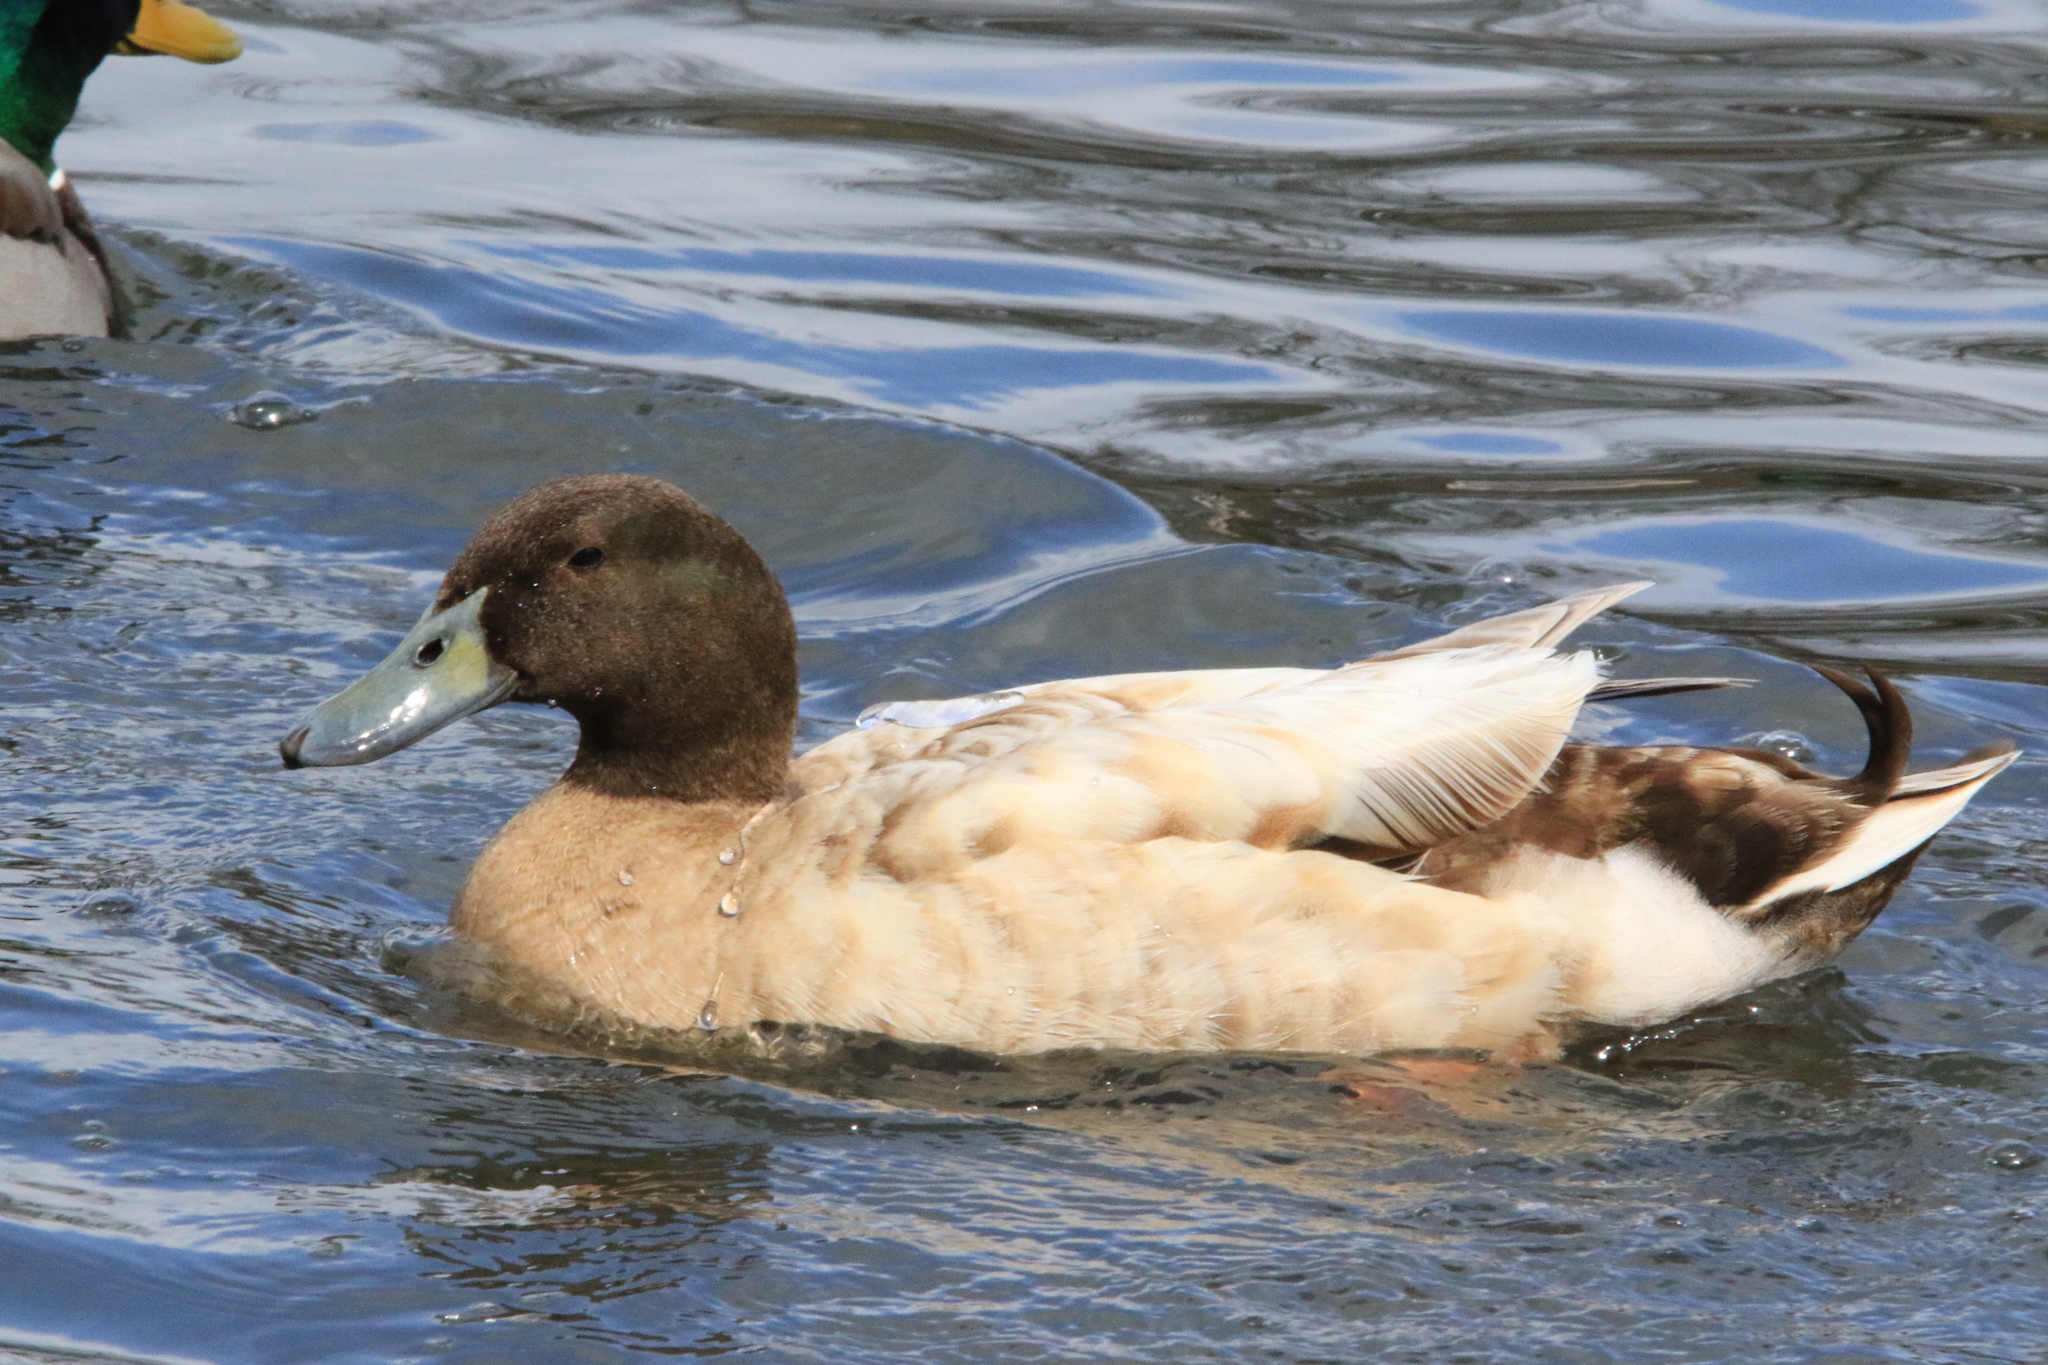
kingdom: Animalia
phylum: Chordata
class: Aves
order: Anseriformes
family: Anatidae
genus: Anas
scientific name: Anas platyrhynchos
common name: Mallard
